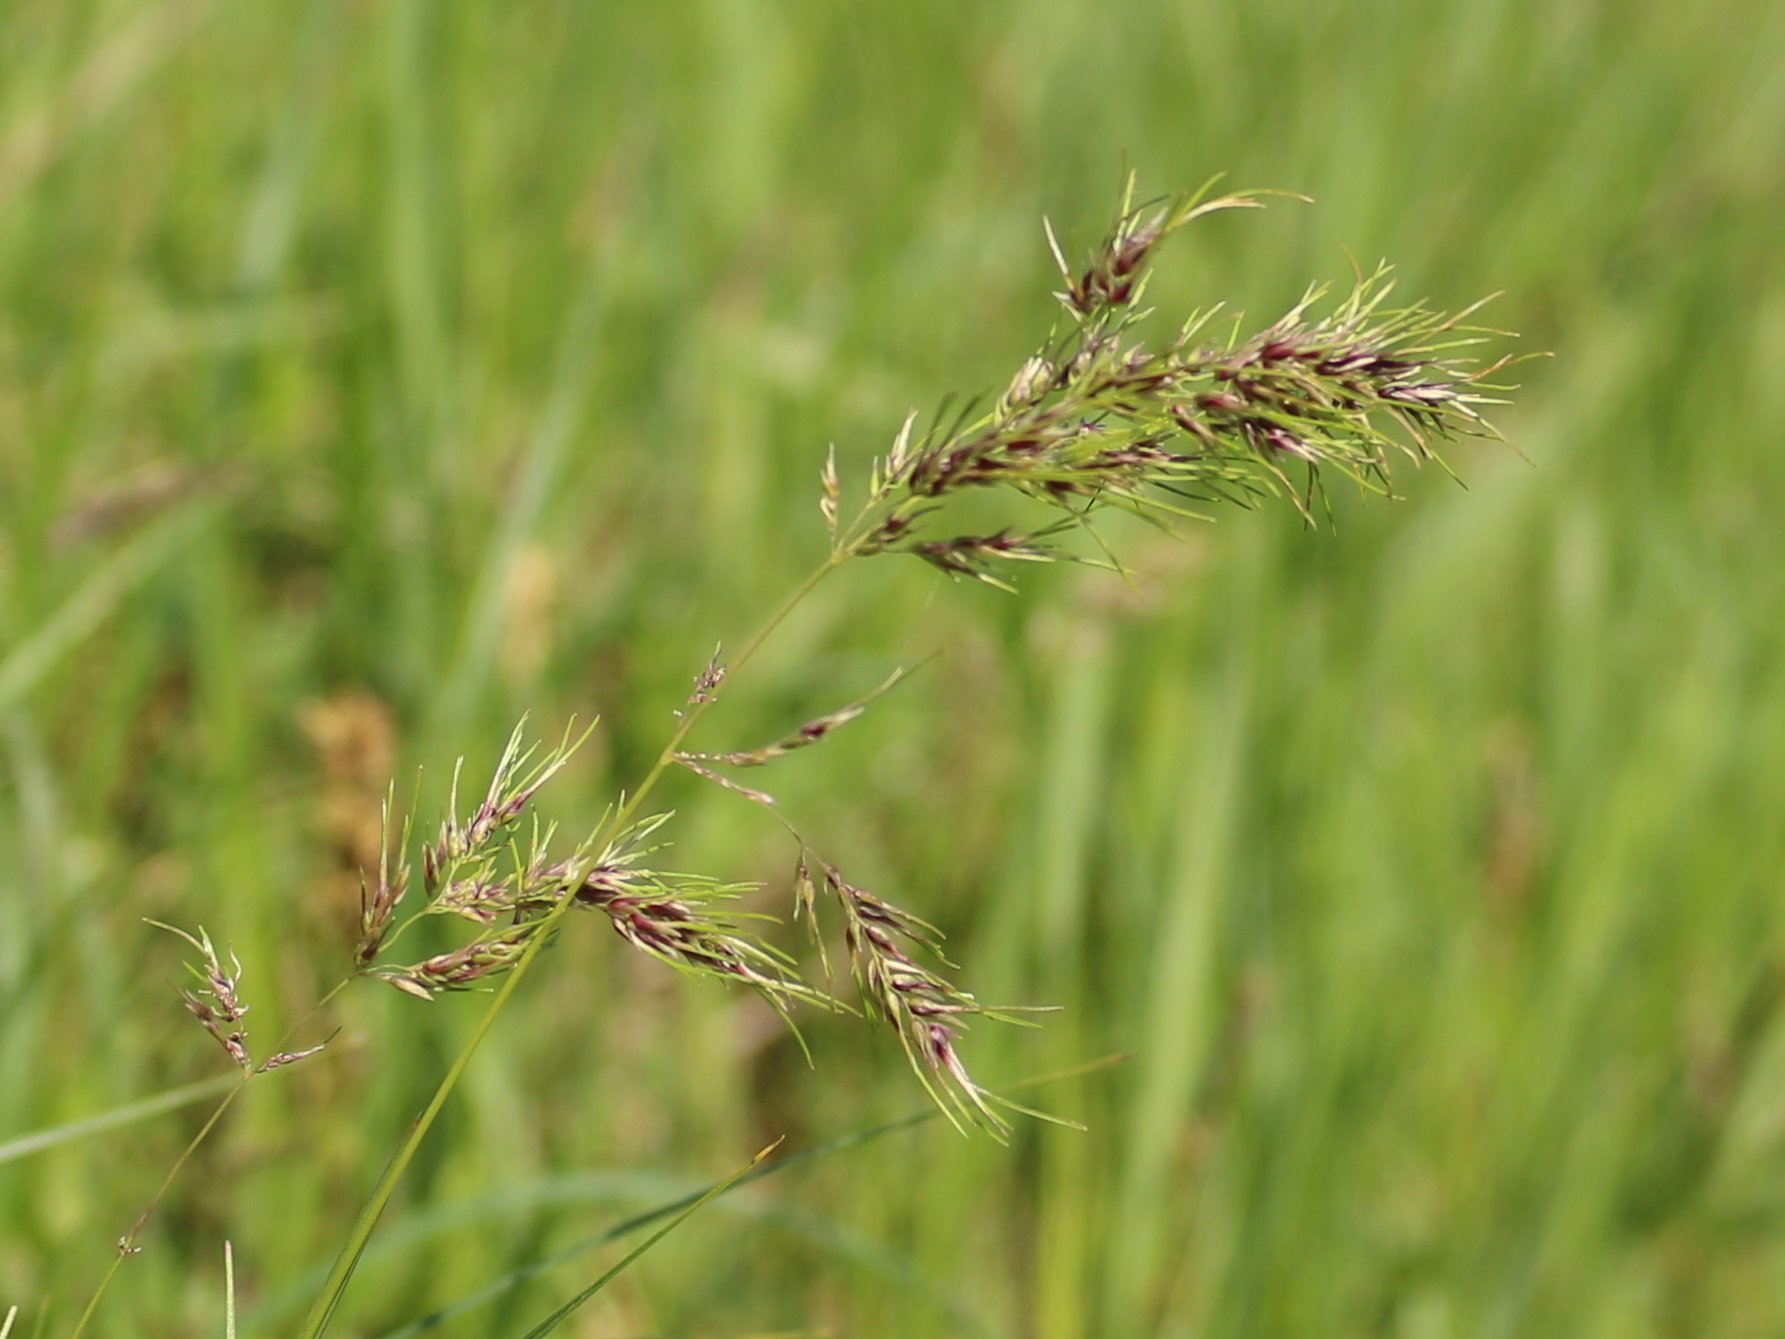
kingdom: Plantae
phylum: Tracheophyta
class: Liliopsida
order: Poales
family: Poaceae
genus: Poa
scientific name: Poa bulbosa
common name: Bulbous bluegrass
